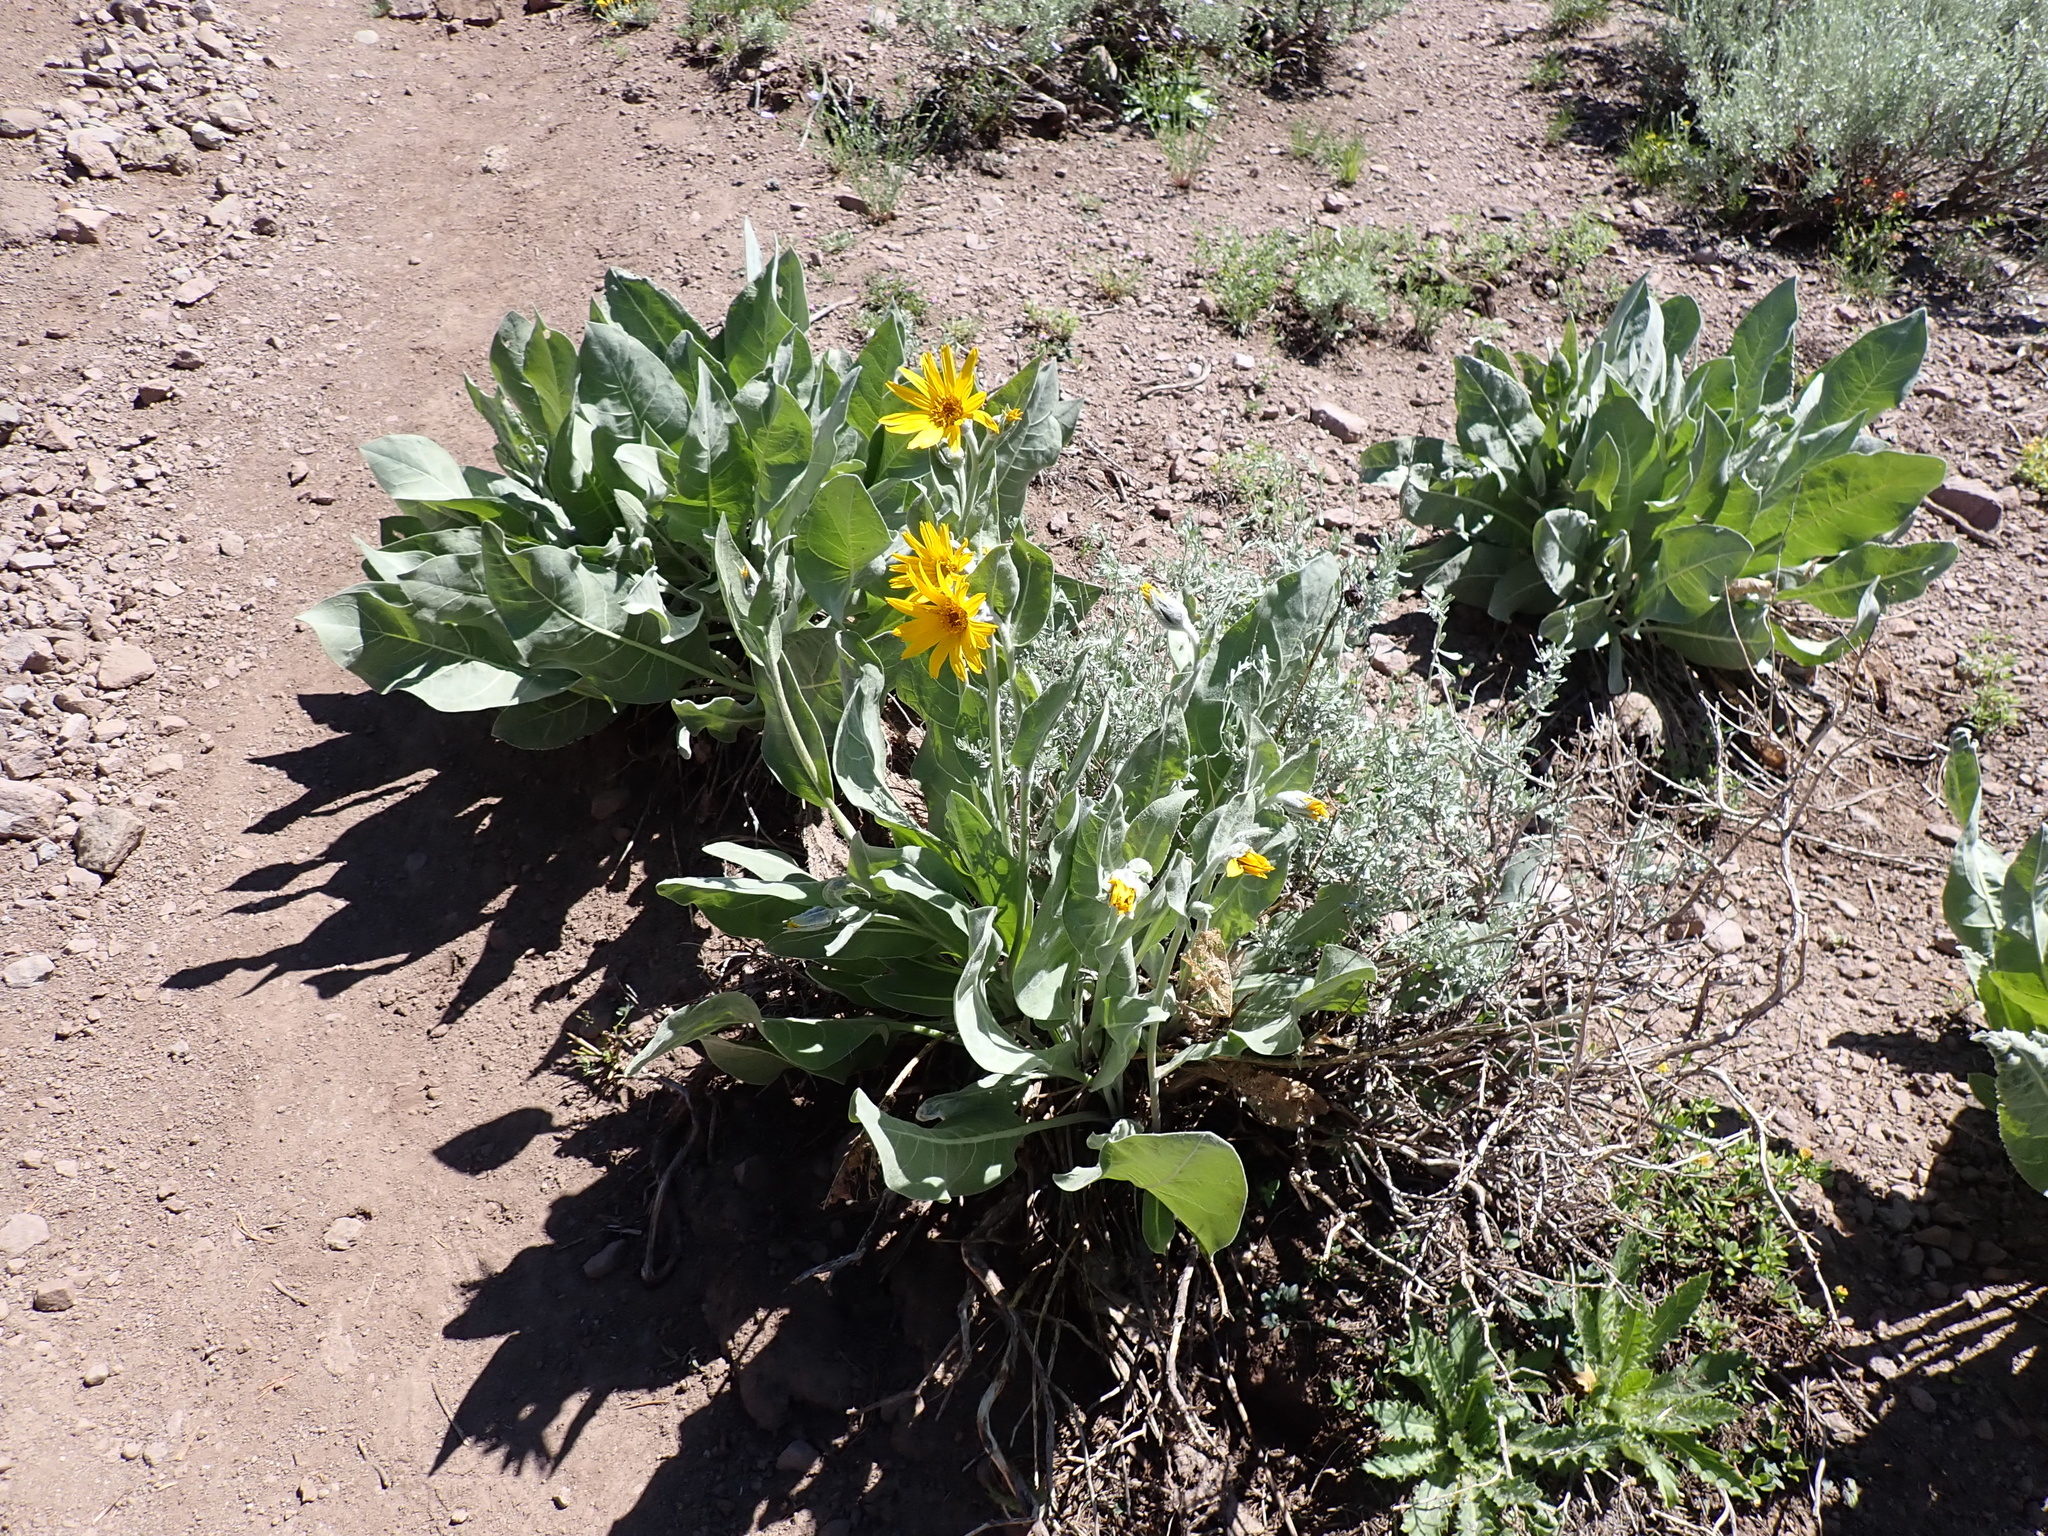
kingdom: Plantae
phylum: Tracheophyta
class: Magnoliopsida
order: Asterales
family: Asteraceae
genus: Wyethia
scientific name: Wyethia mollis
